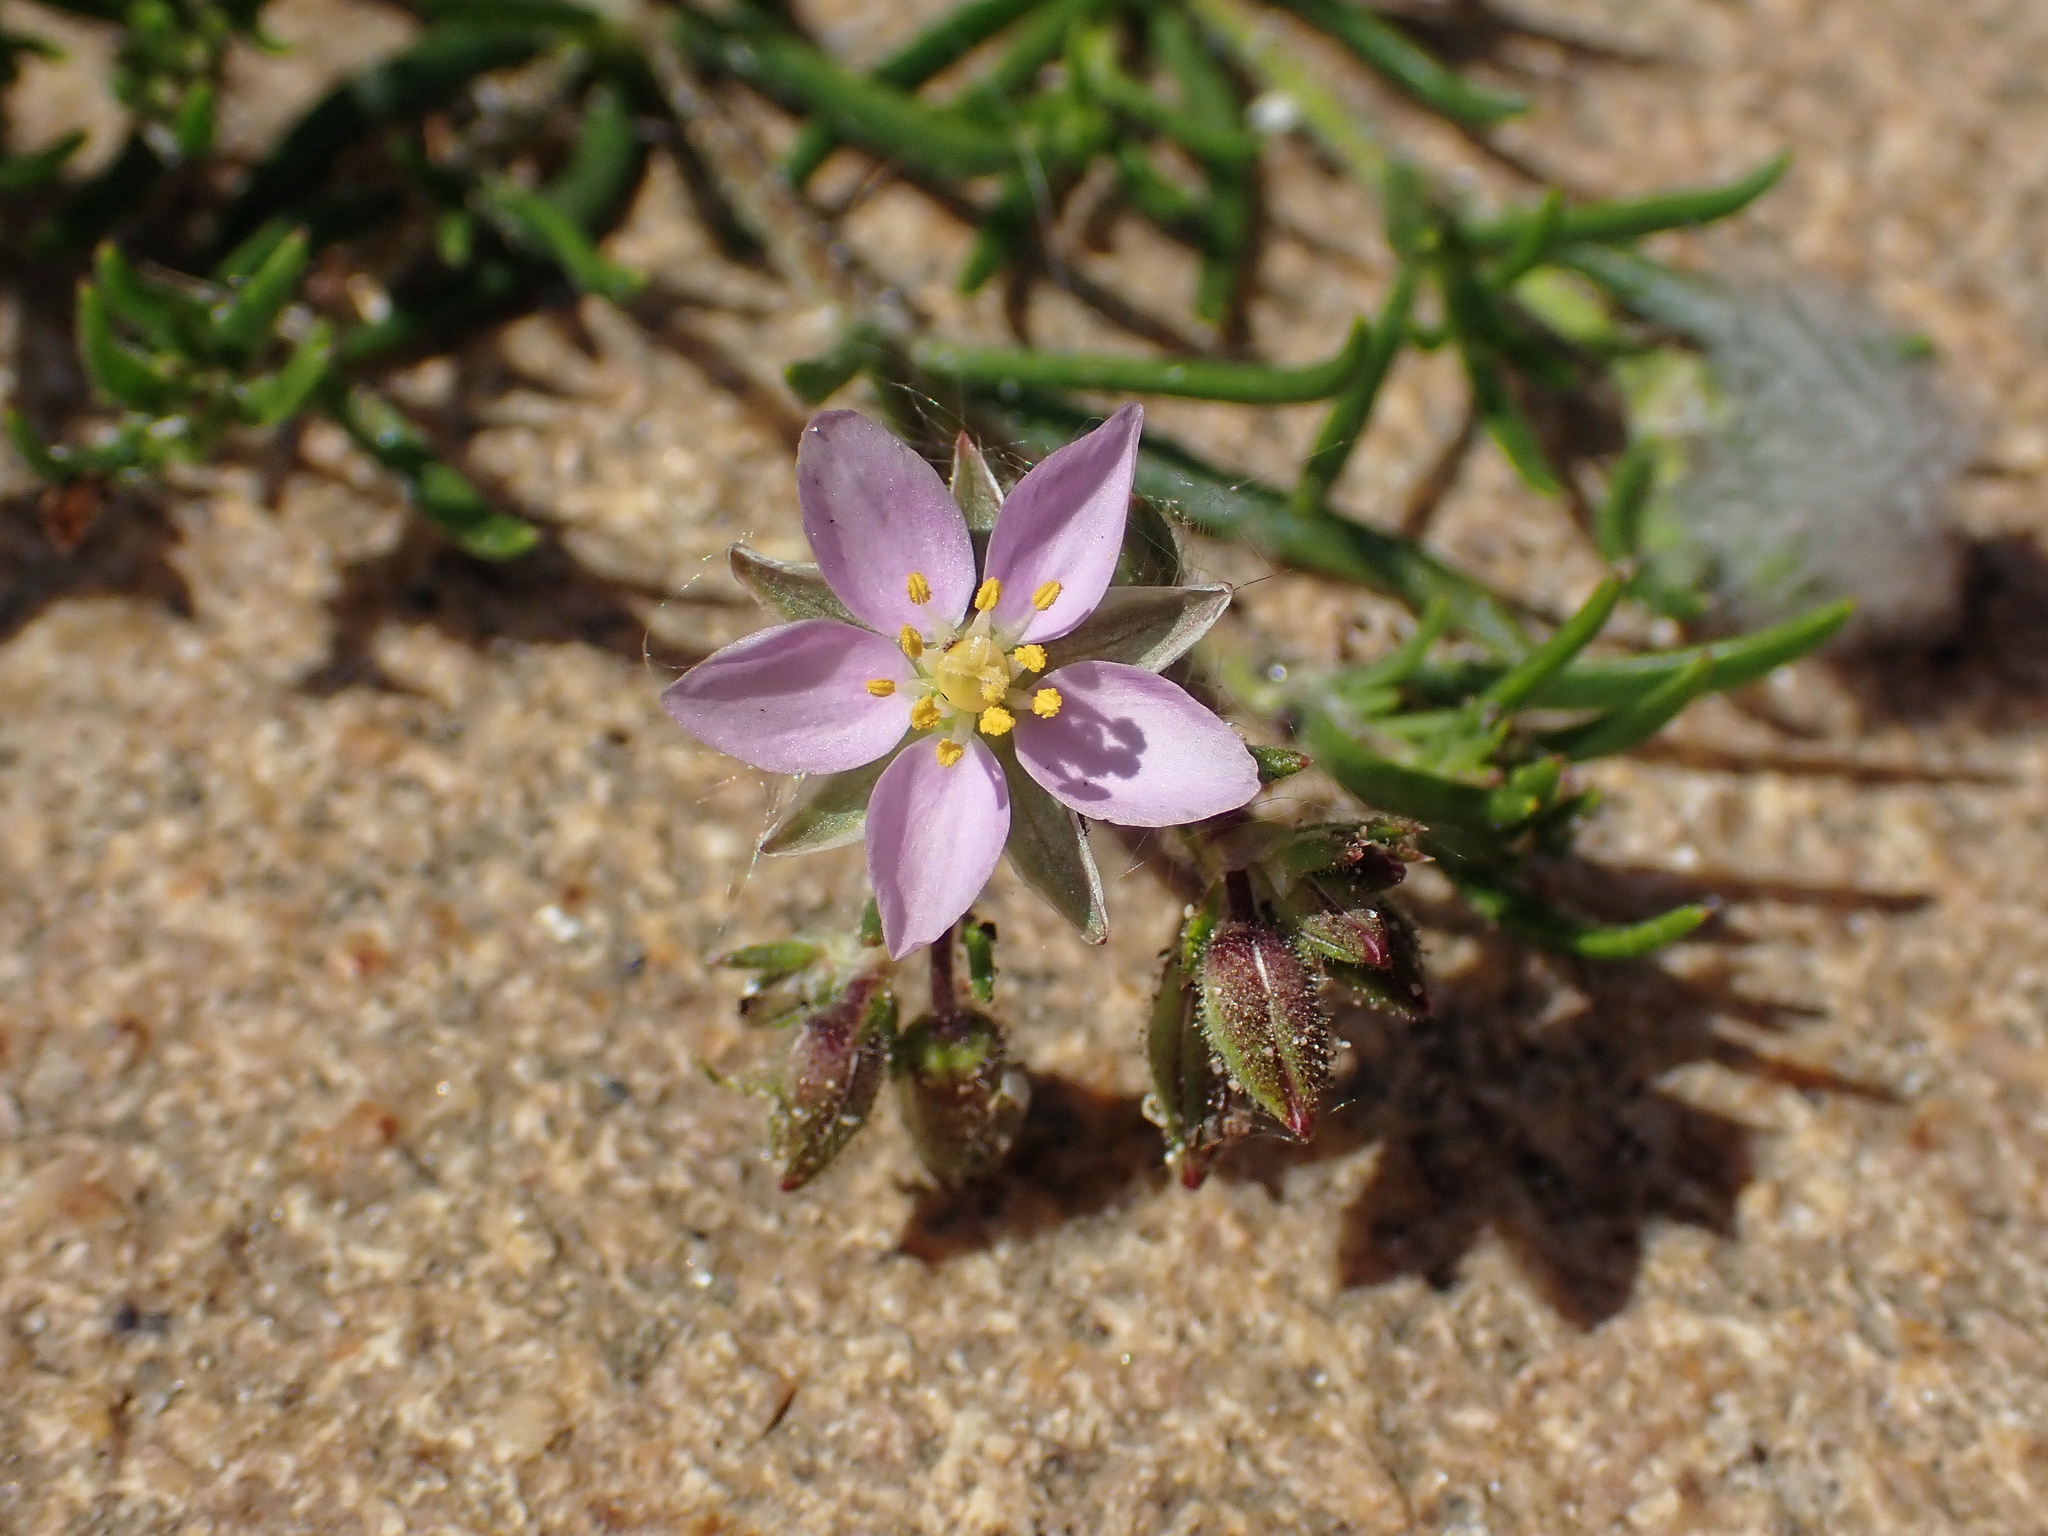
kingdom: Plantae
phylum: Tracheophyta
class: Magnoliopsida
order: Caryophyllales
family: Caryophyllaceae
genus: Spergularia
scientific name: Spergularia rupicola
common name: Cliff sand-spurrey
